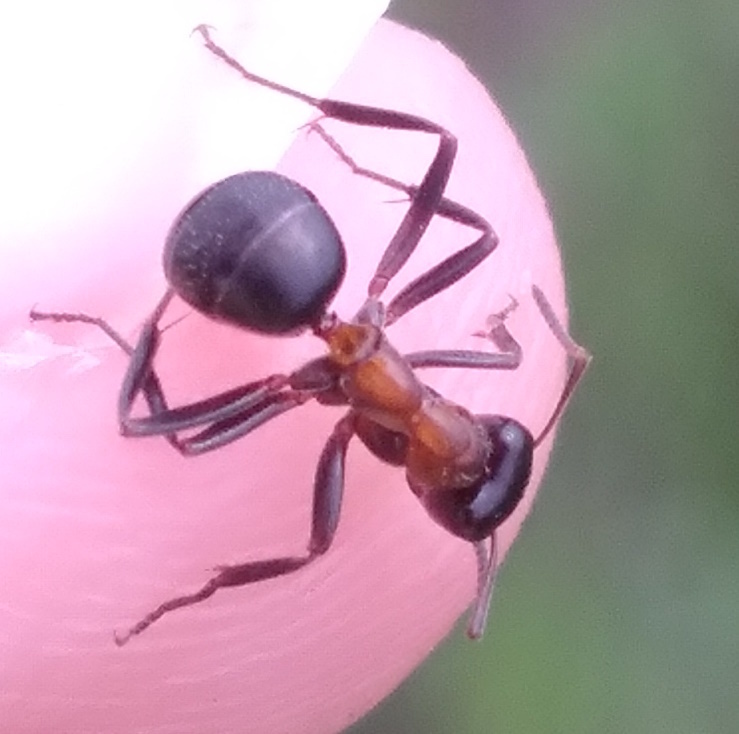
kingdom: Animalia
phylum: Arthropoda
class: Insecta
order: Hymenoptera
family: Formicidae
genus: Formica
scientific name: Formica ulkei
